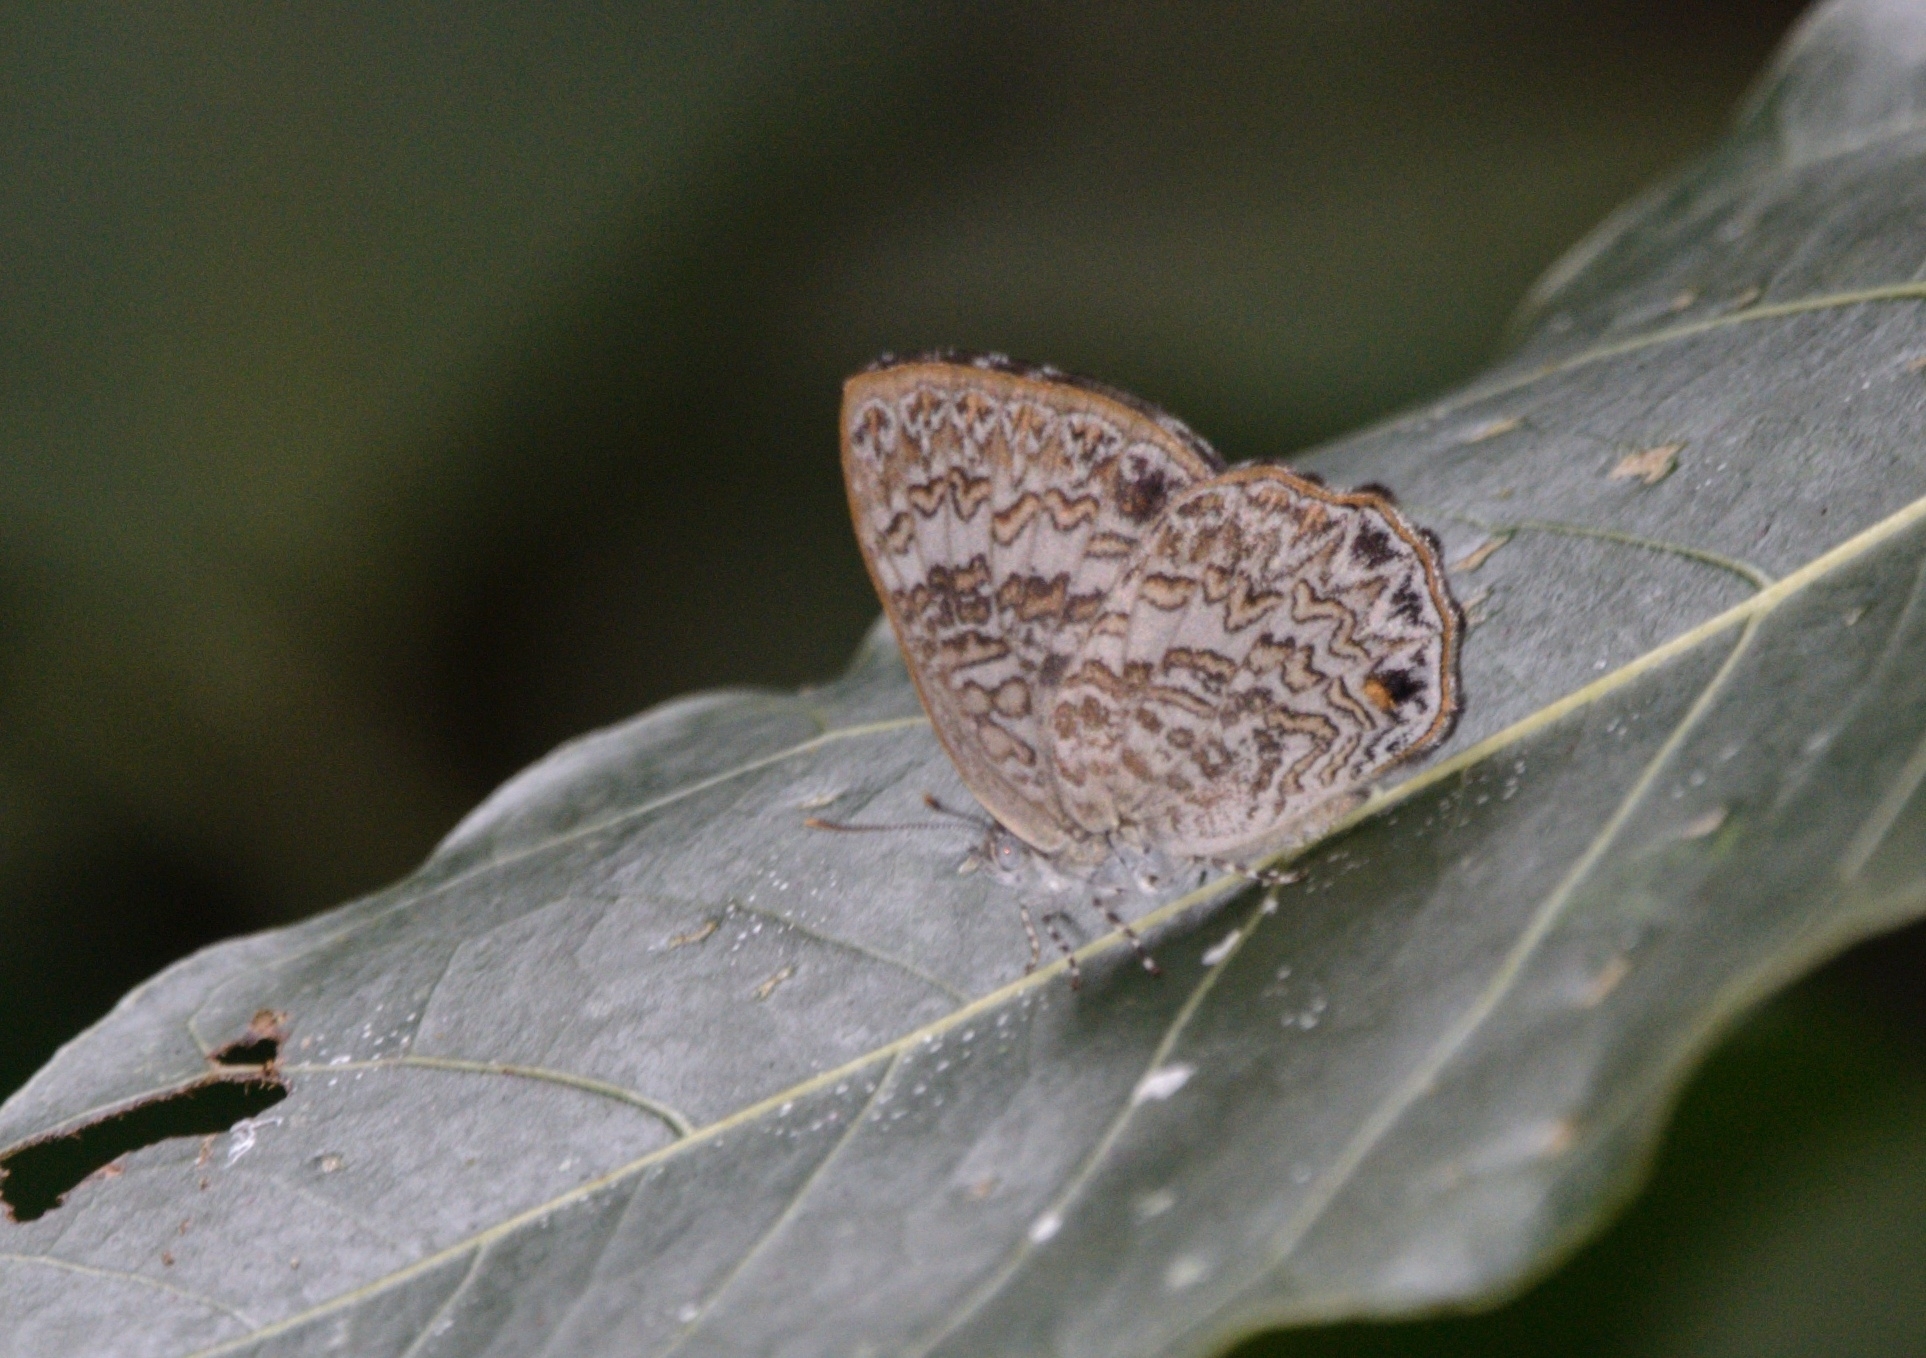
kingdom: Animalia
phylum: Arthropoda
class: Insecta
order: Lepidoptera
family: Lycaenidae
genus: Poritia
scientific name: Poritia hewitsoni
